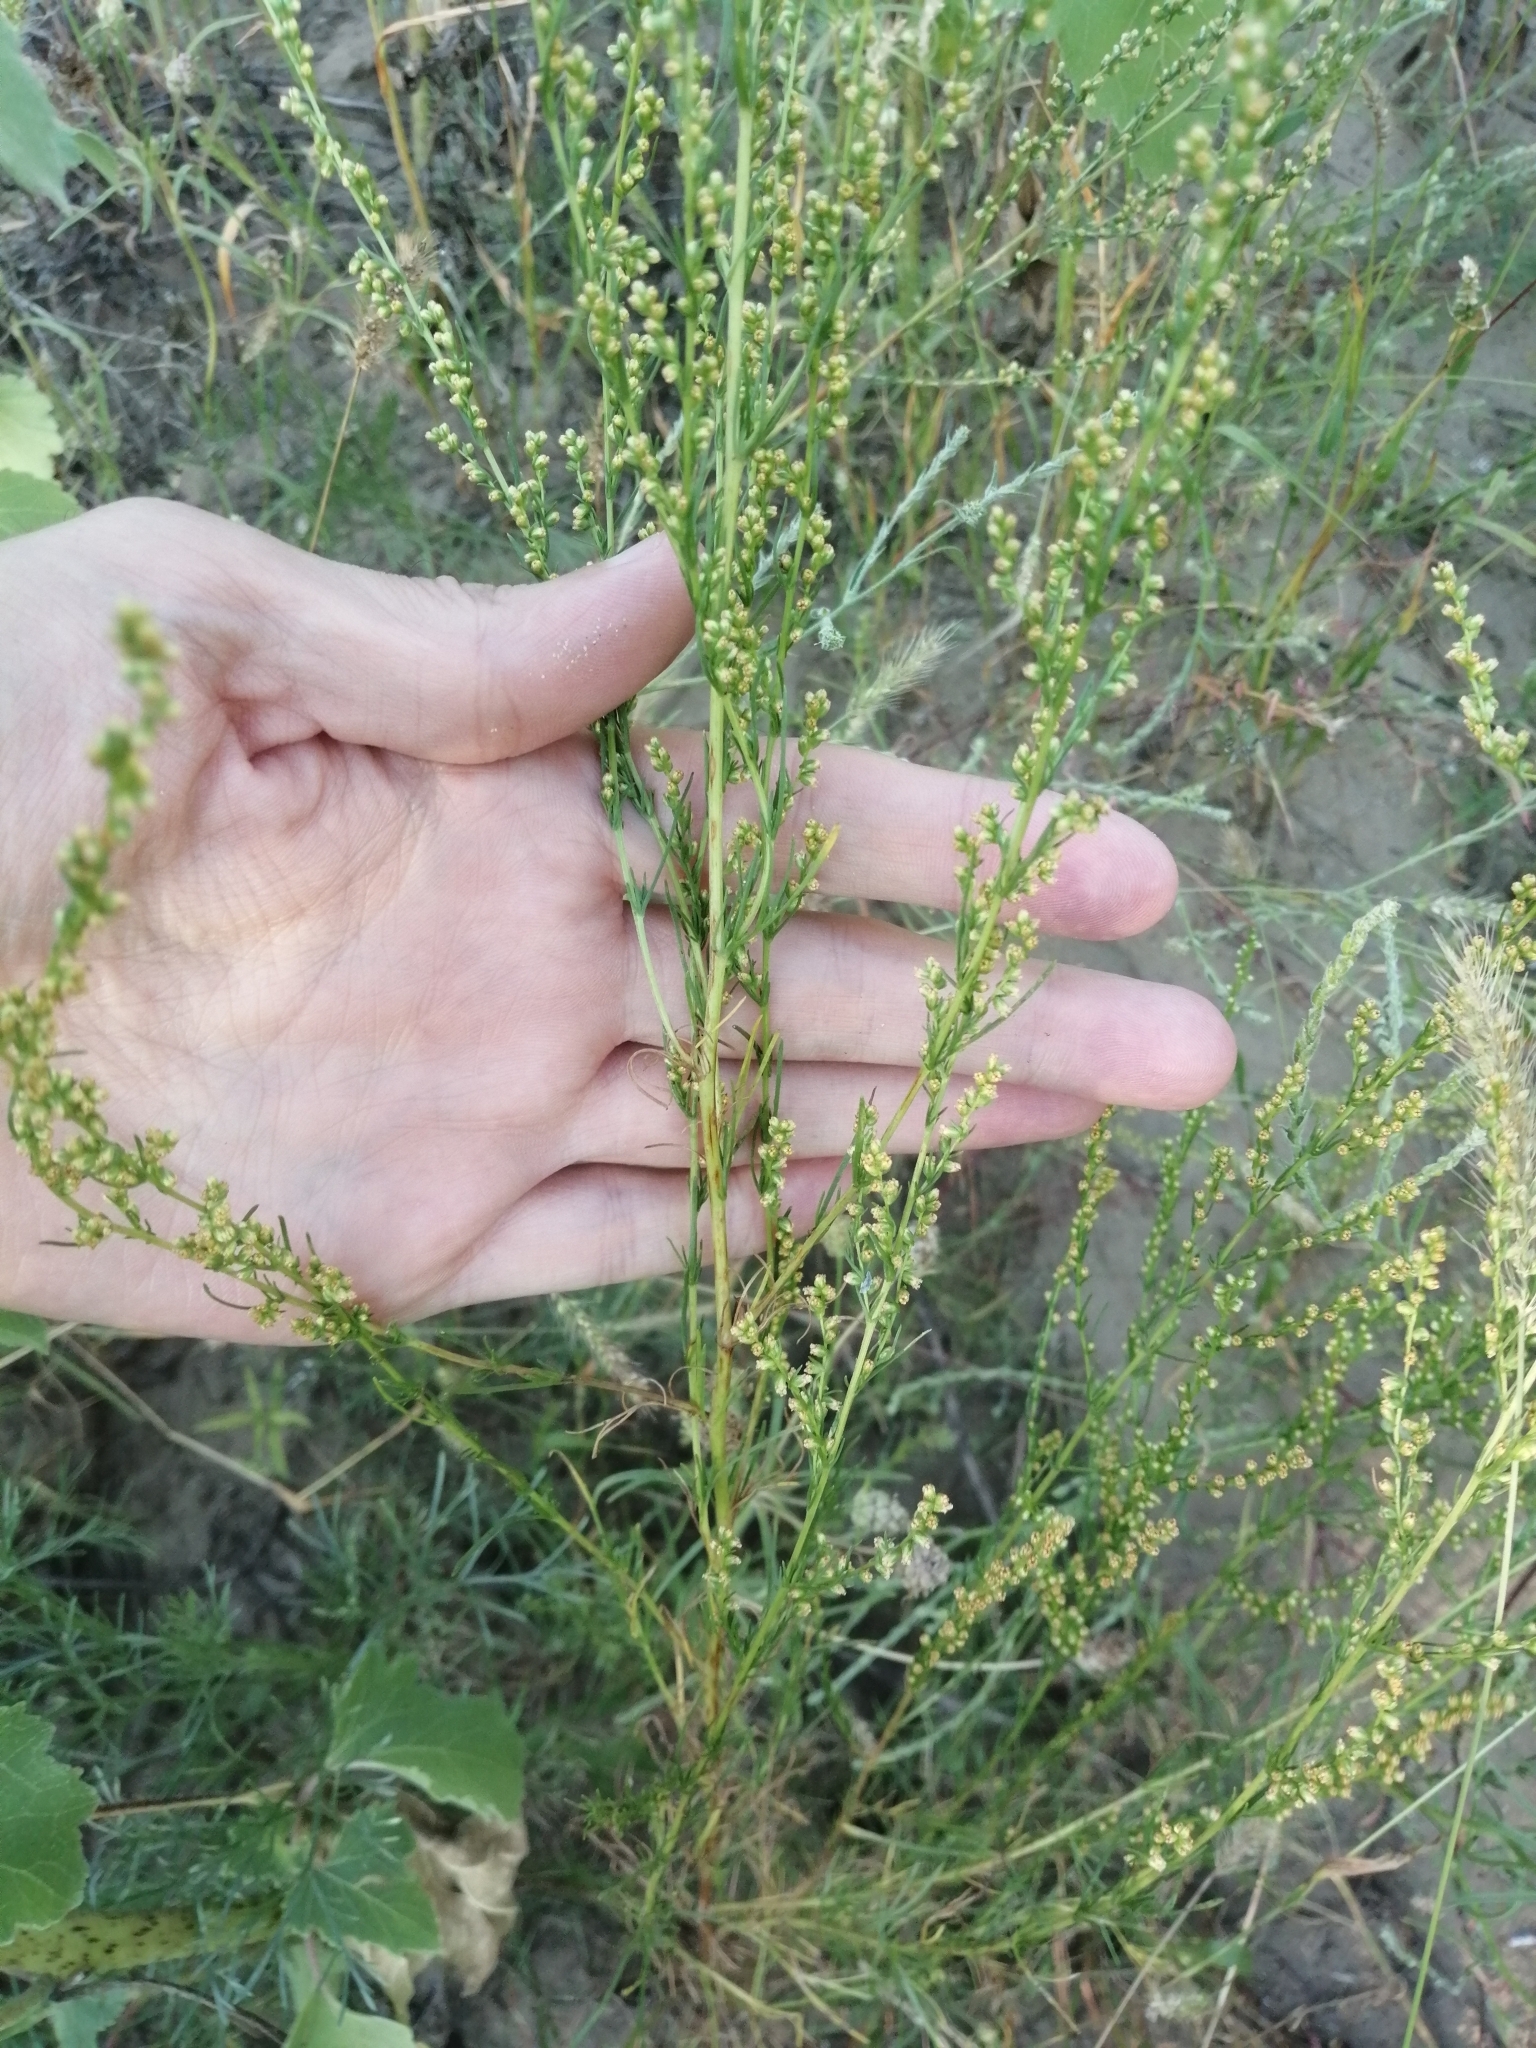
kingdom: Plantae
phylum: Tracheophyta
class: Magnoliopsida
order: Asterales
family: Asteraceae
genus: Artemisia
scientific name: Artemisia campestris
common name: Field wormwood
